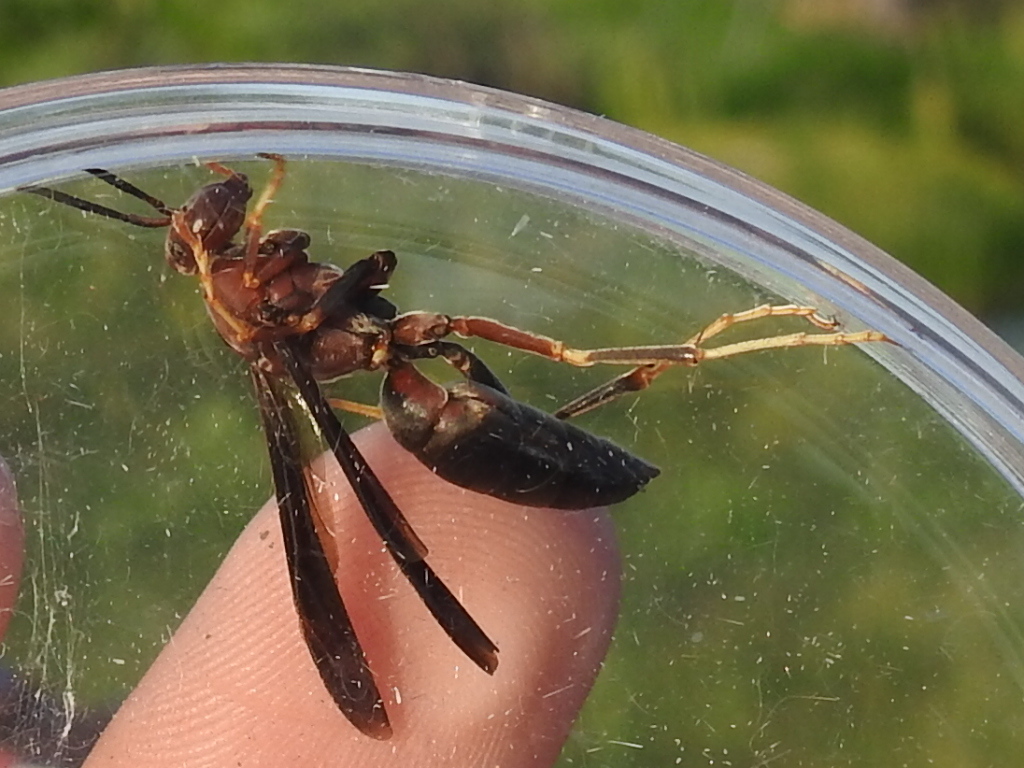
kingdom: Animalia
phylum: Arthropoda
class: Insecta
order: Hymenoptera
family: Eumenidae
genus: Polistes
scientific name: Polistes metricus
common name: Metric paper wasp
